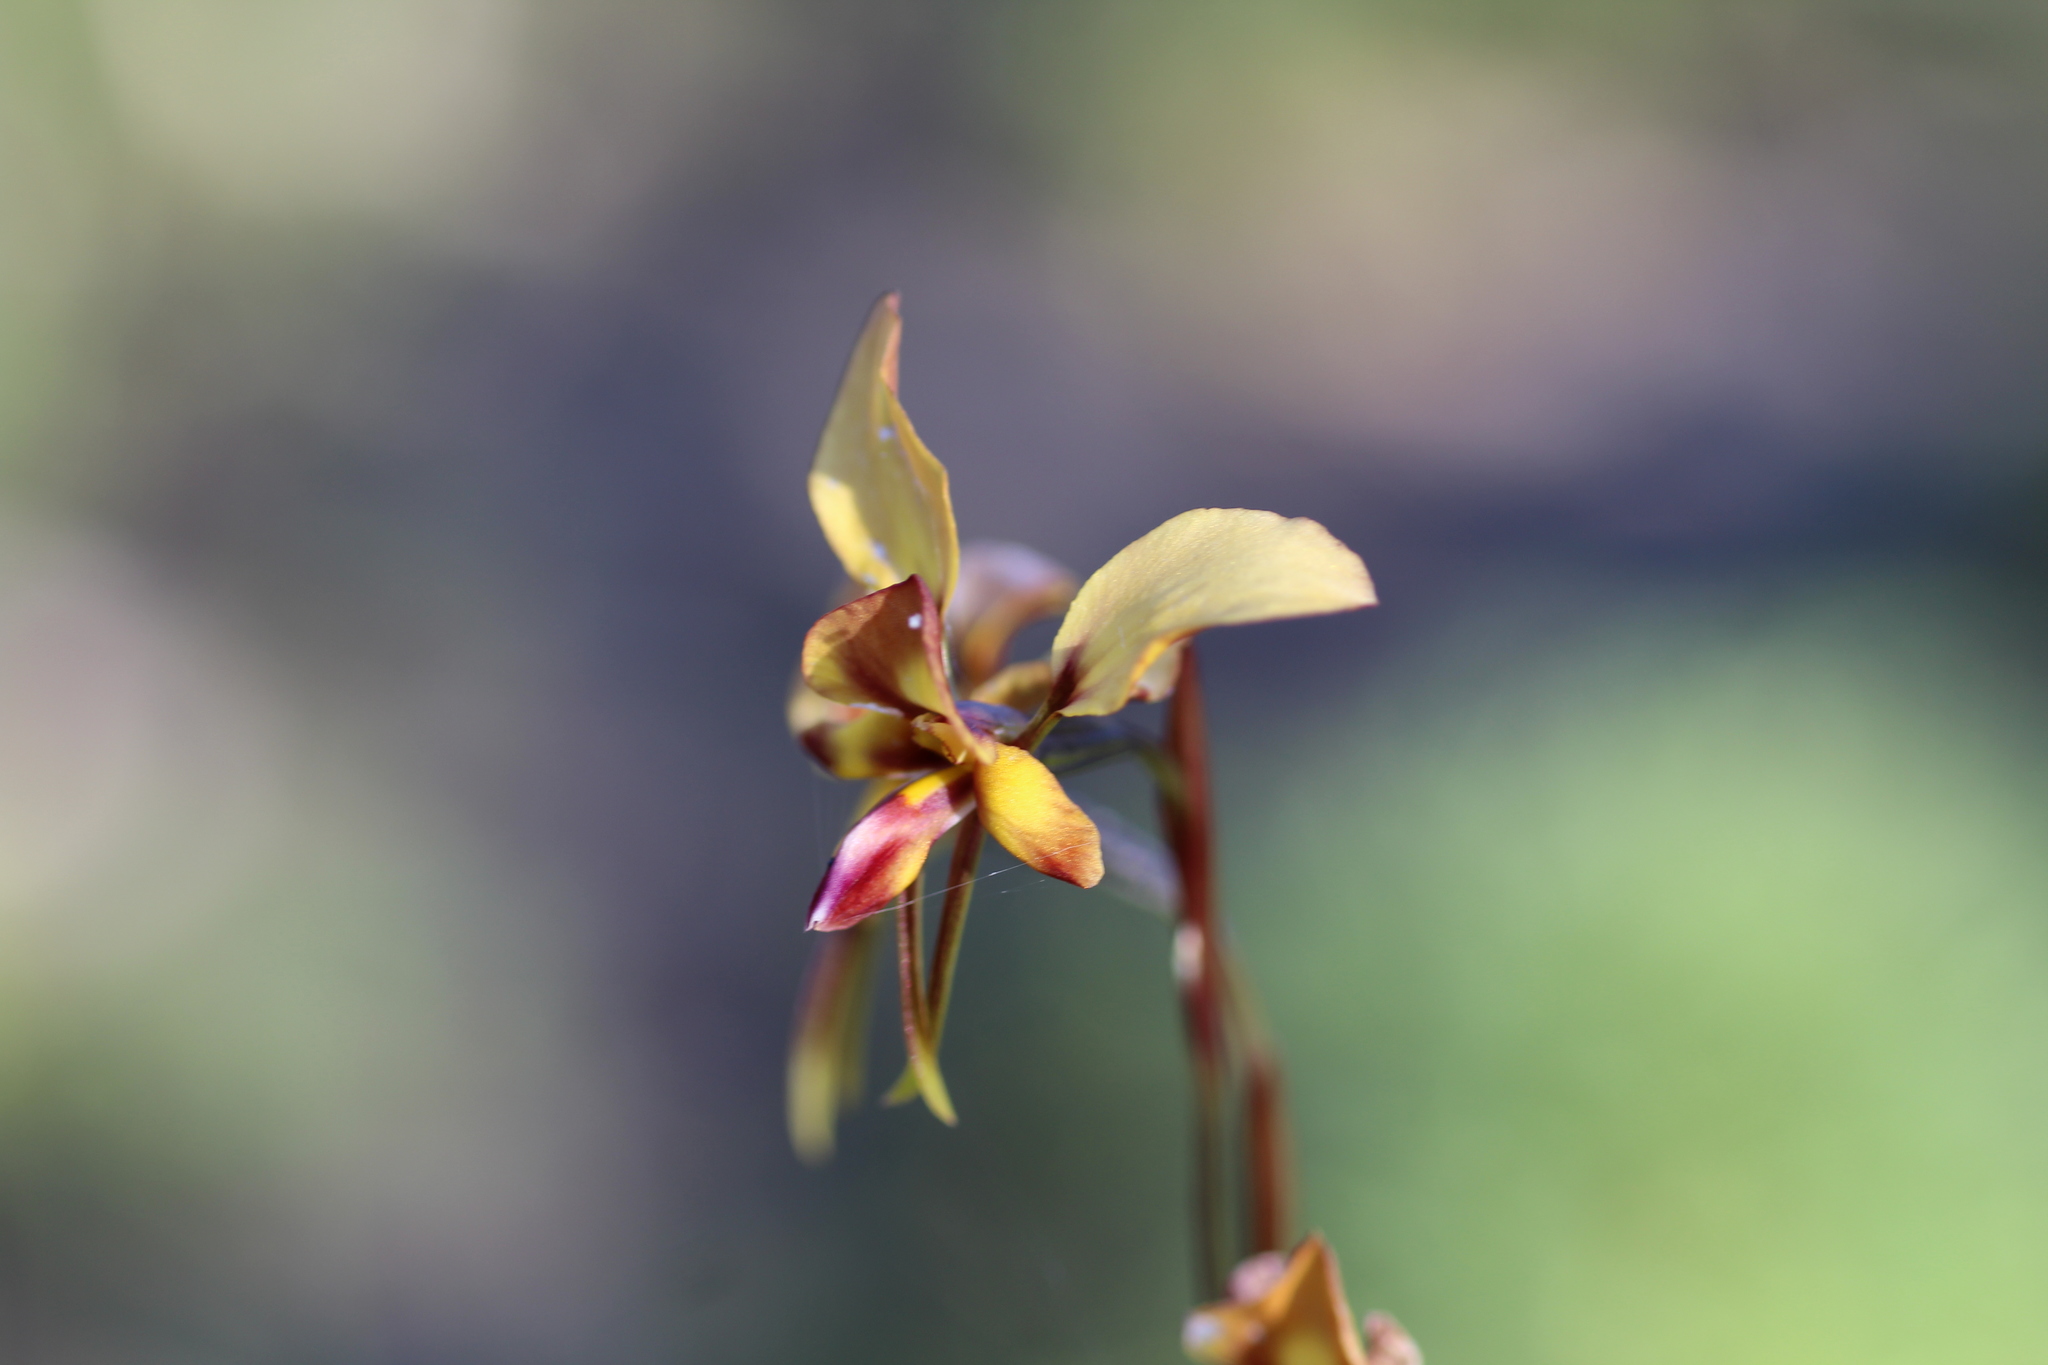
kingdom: Plantae
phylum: Tracheophyta
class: Liliopsida
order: Asparagales
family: Orchidaceae
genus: Diuris
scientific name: Diuris porphyrochila
